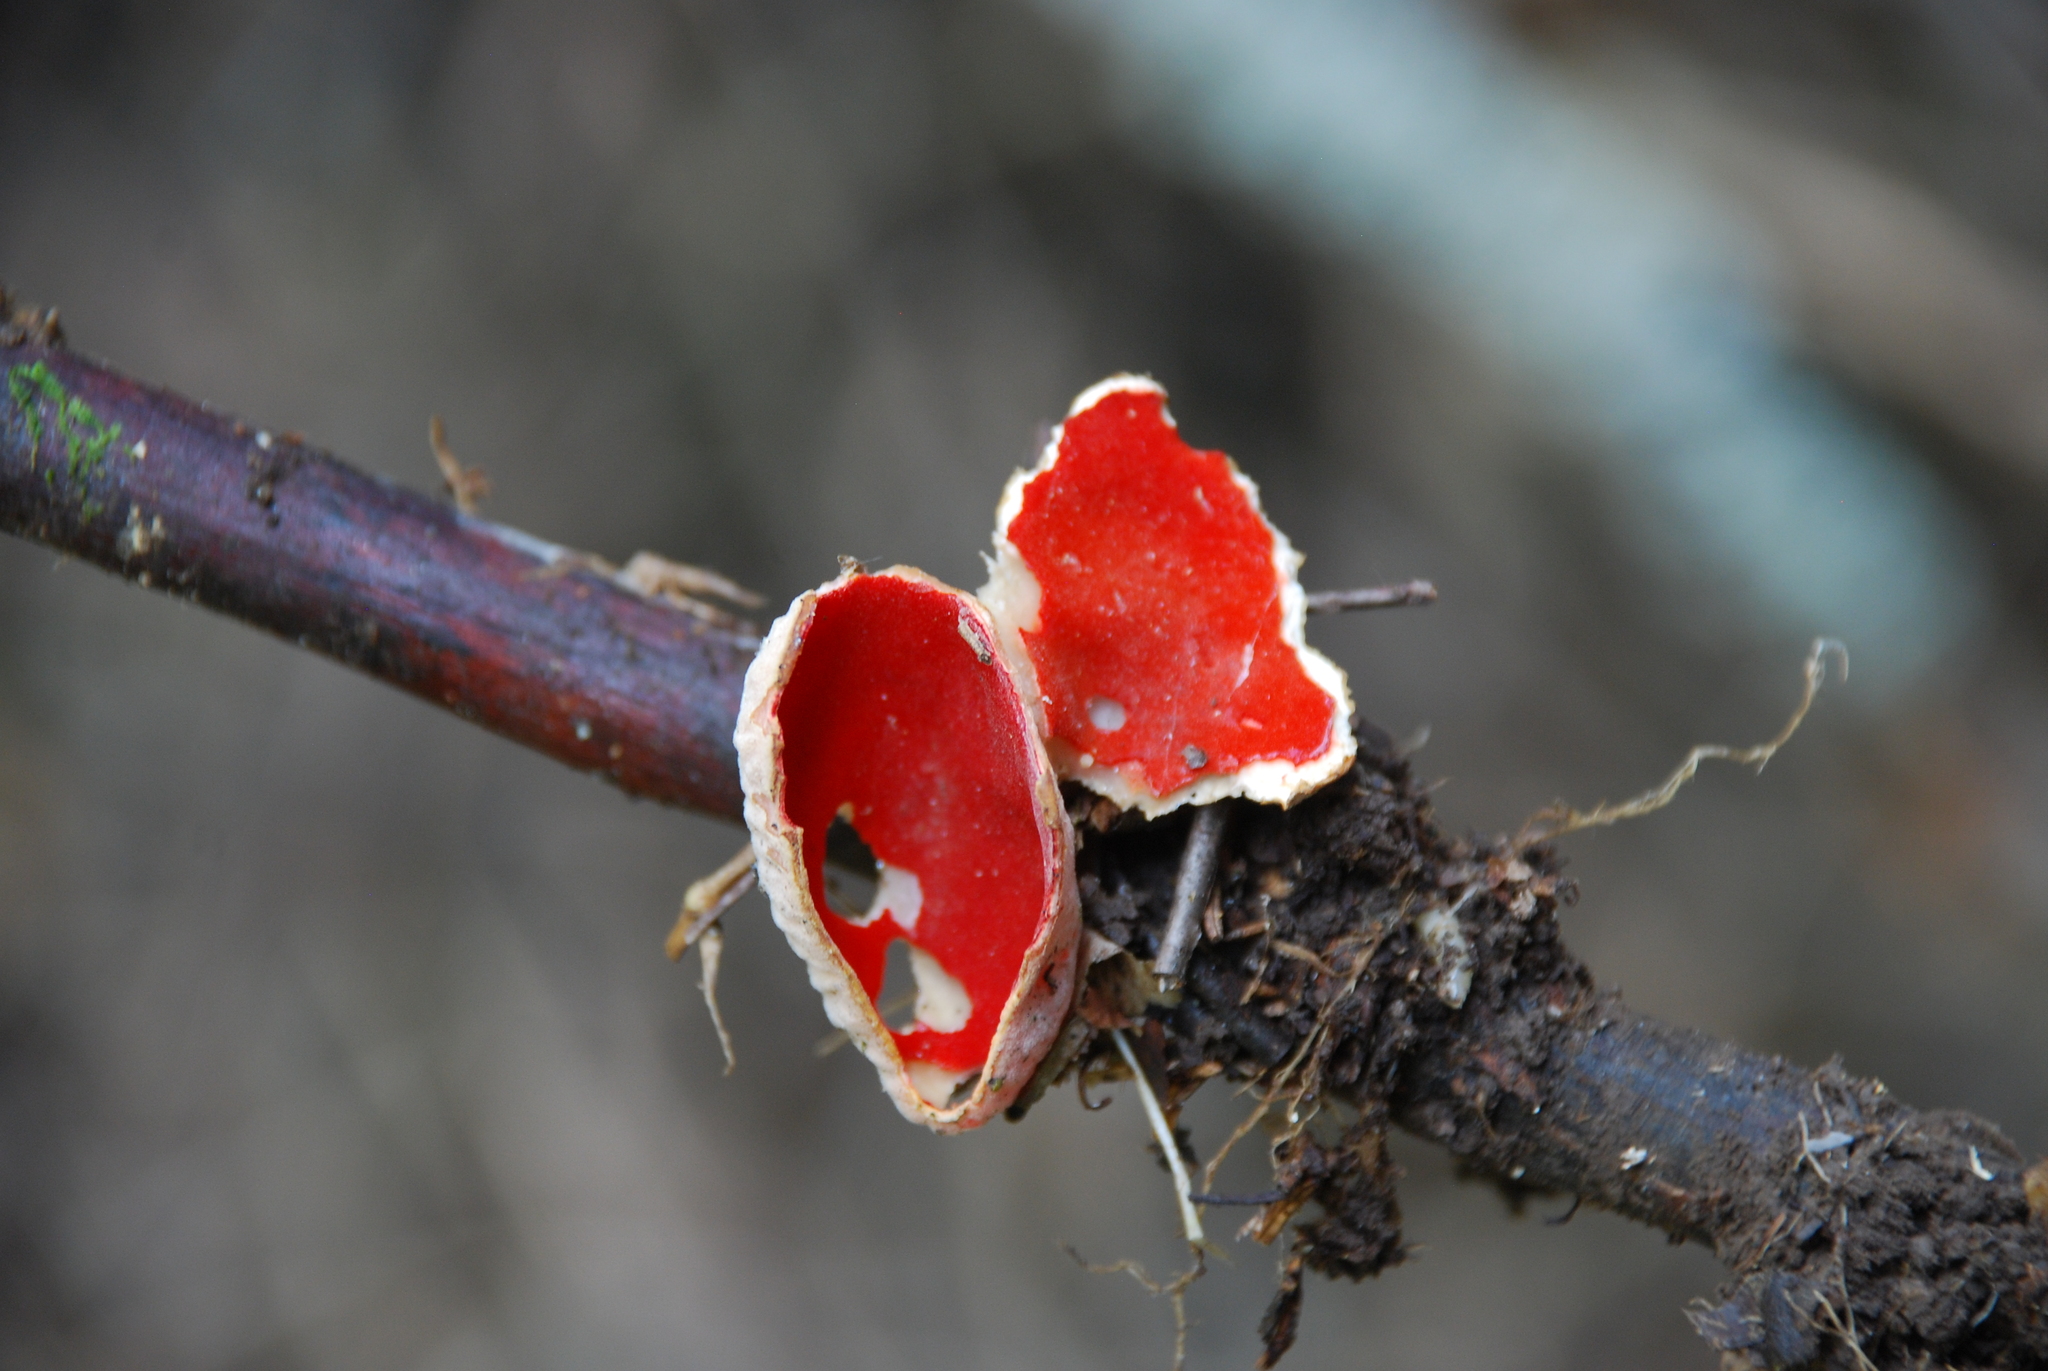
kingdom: Fungi
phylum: Ascomycota
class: Pezizomycetes
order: Pezizales
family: Sarcoscyphaceae
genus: Sarcoscypha
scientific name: Sarcoscypha
